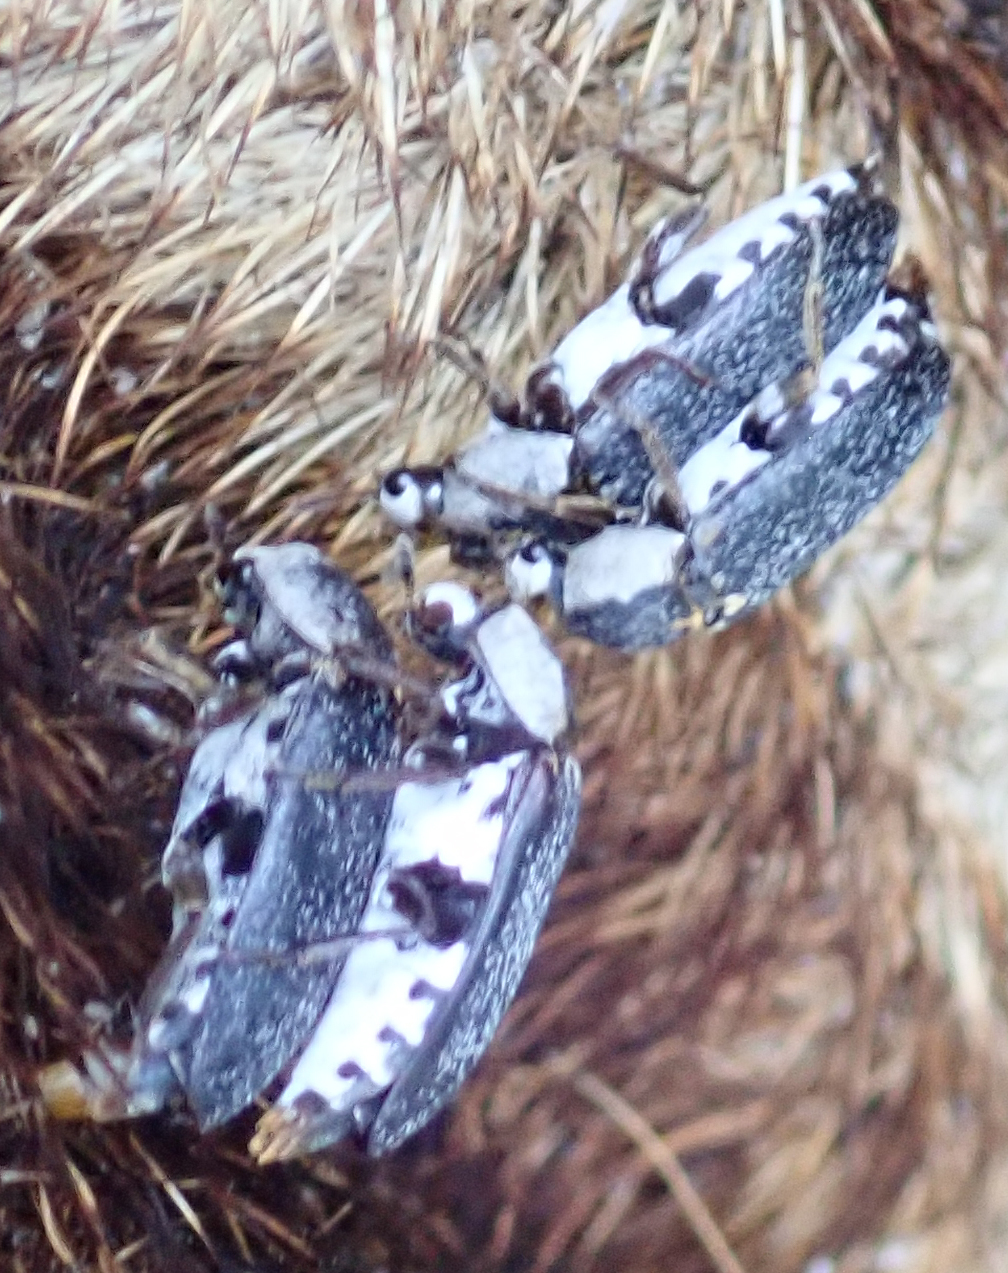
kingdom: Animalia
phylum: Arthropoda
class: Insecta
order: Coleoptera
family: Dermestidae
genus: Dermestes
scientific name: Dermestes maculatus
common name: Hide beetle
